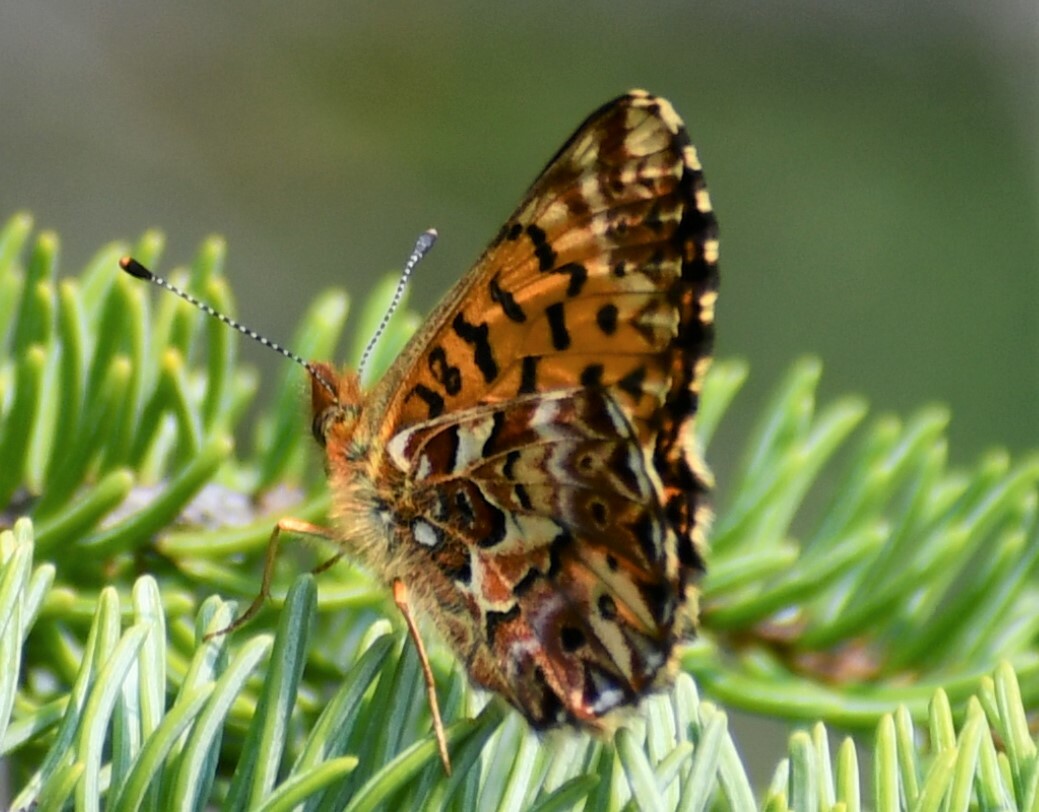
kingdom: Animalia
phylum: Arthropoda
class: Insecta
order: Lepidoptera
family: Nymphalidae
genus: Boloria
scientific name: Boloria chariclea
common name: Arctic fritillary
